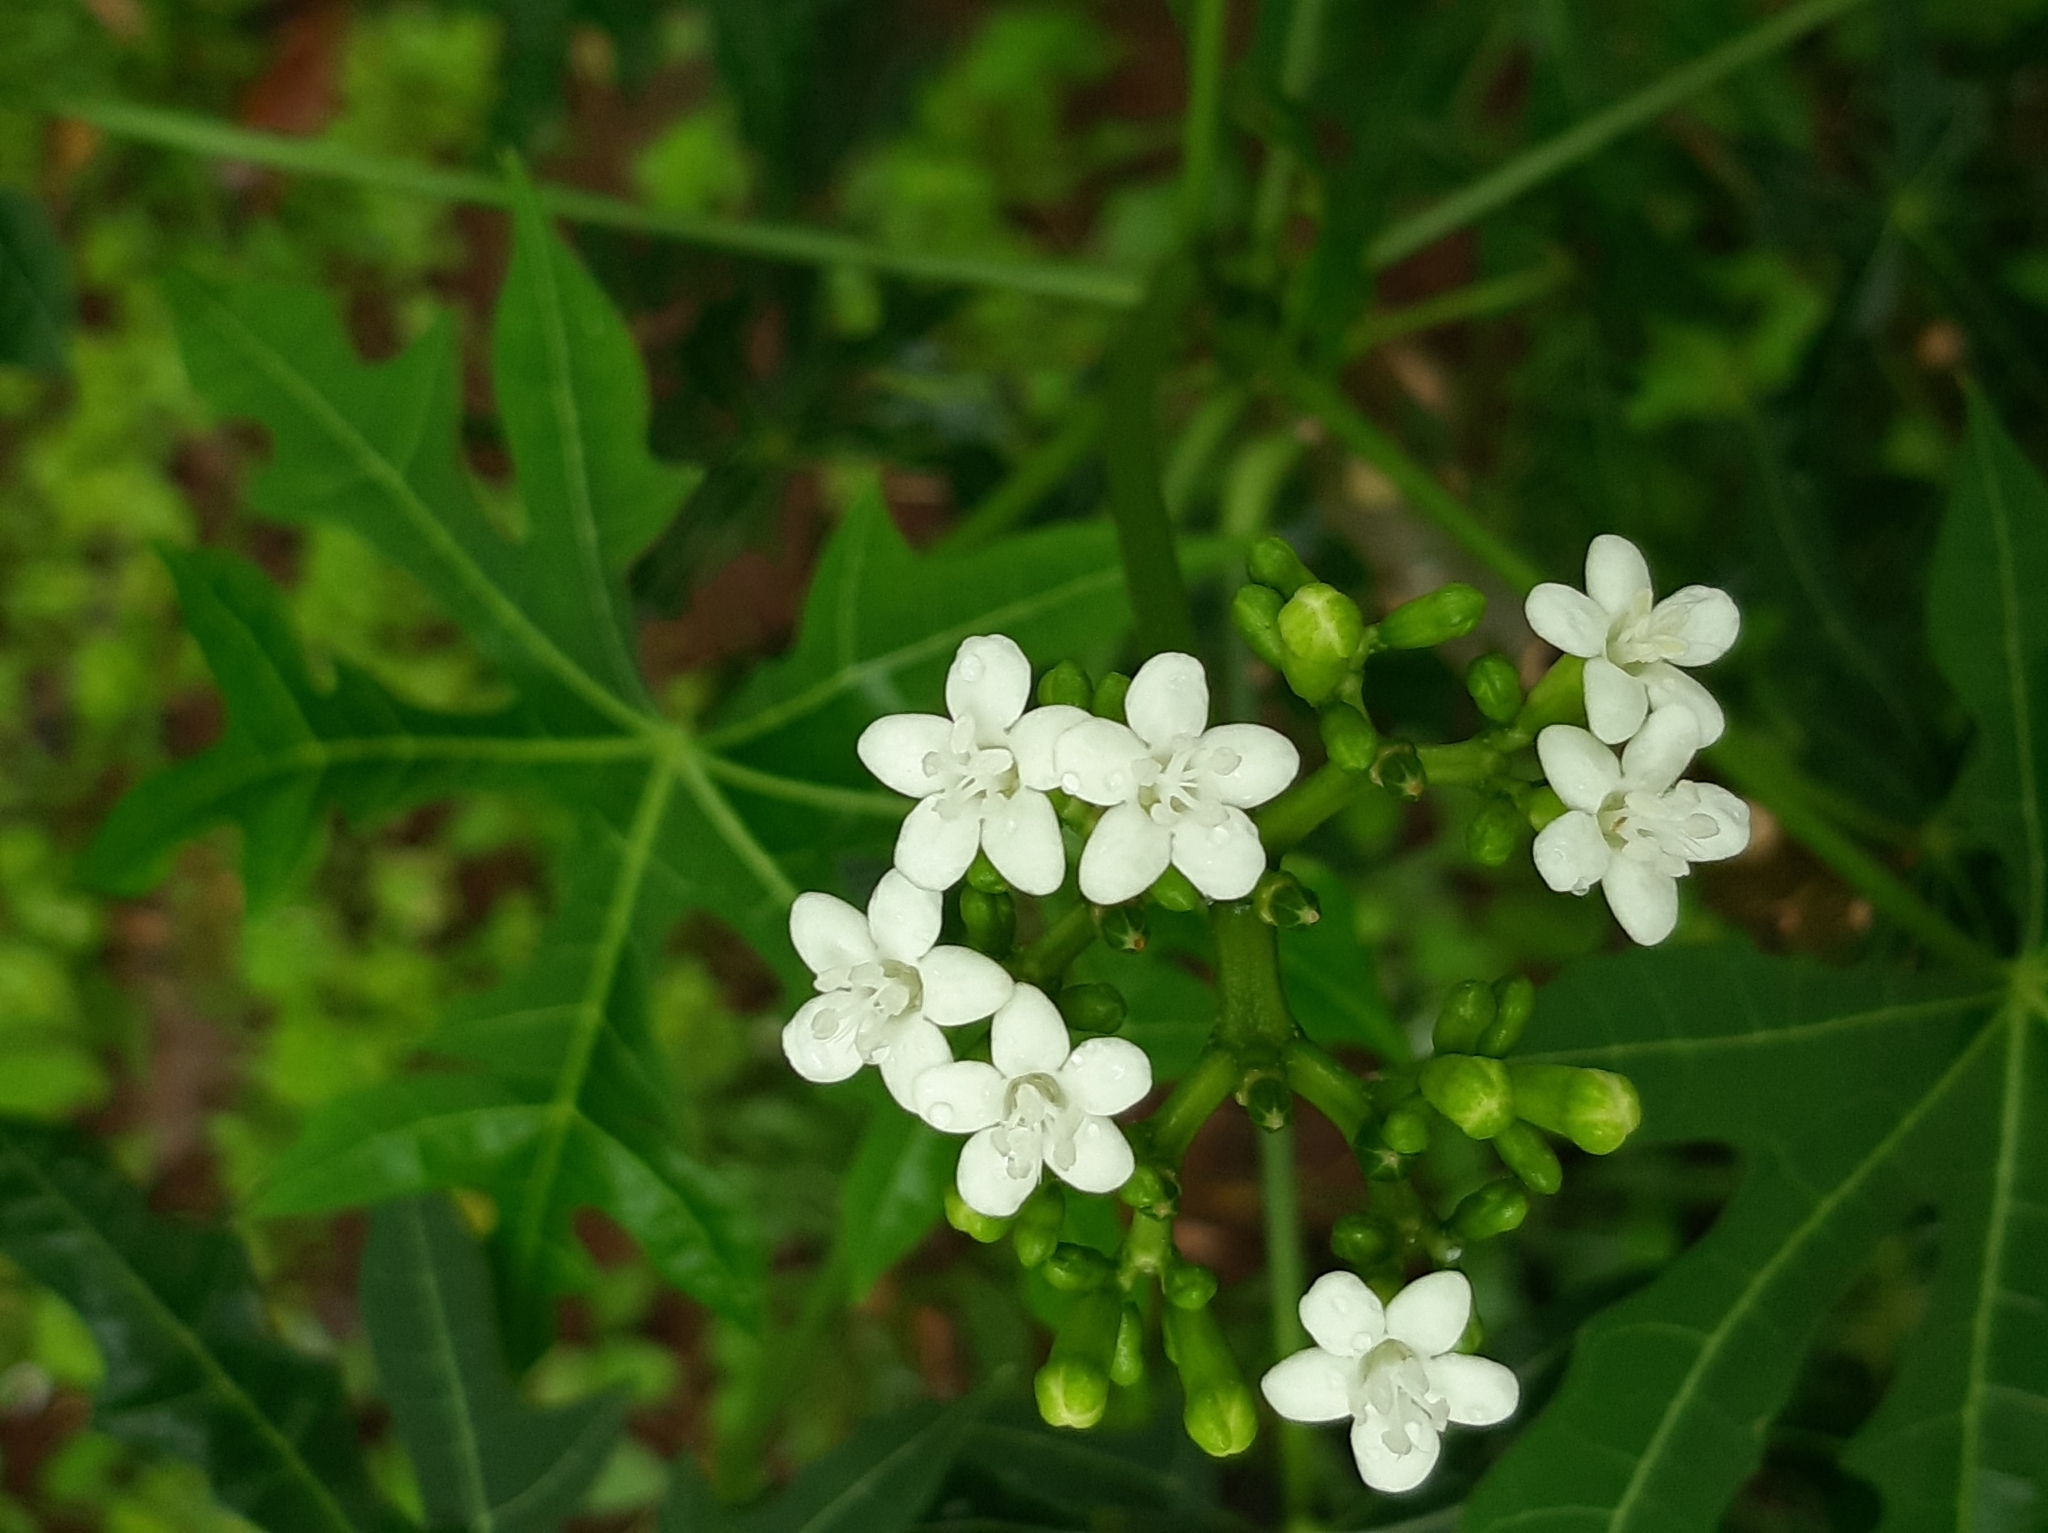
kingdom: Plantae
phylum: Tracheophyta
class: Magnoliopsida
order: Malpighiales
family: Euphorbiaceae
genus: Cnidoscolus
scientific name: Cnidoscolus aconitifolius
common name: Cabbage-star
